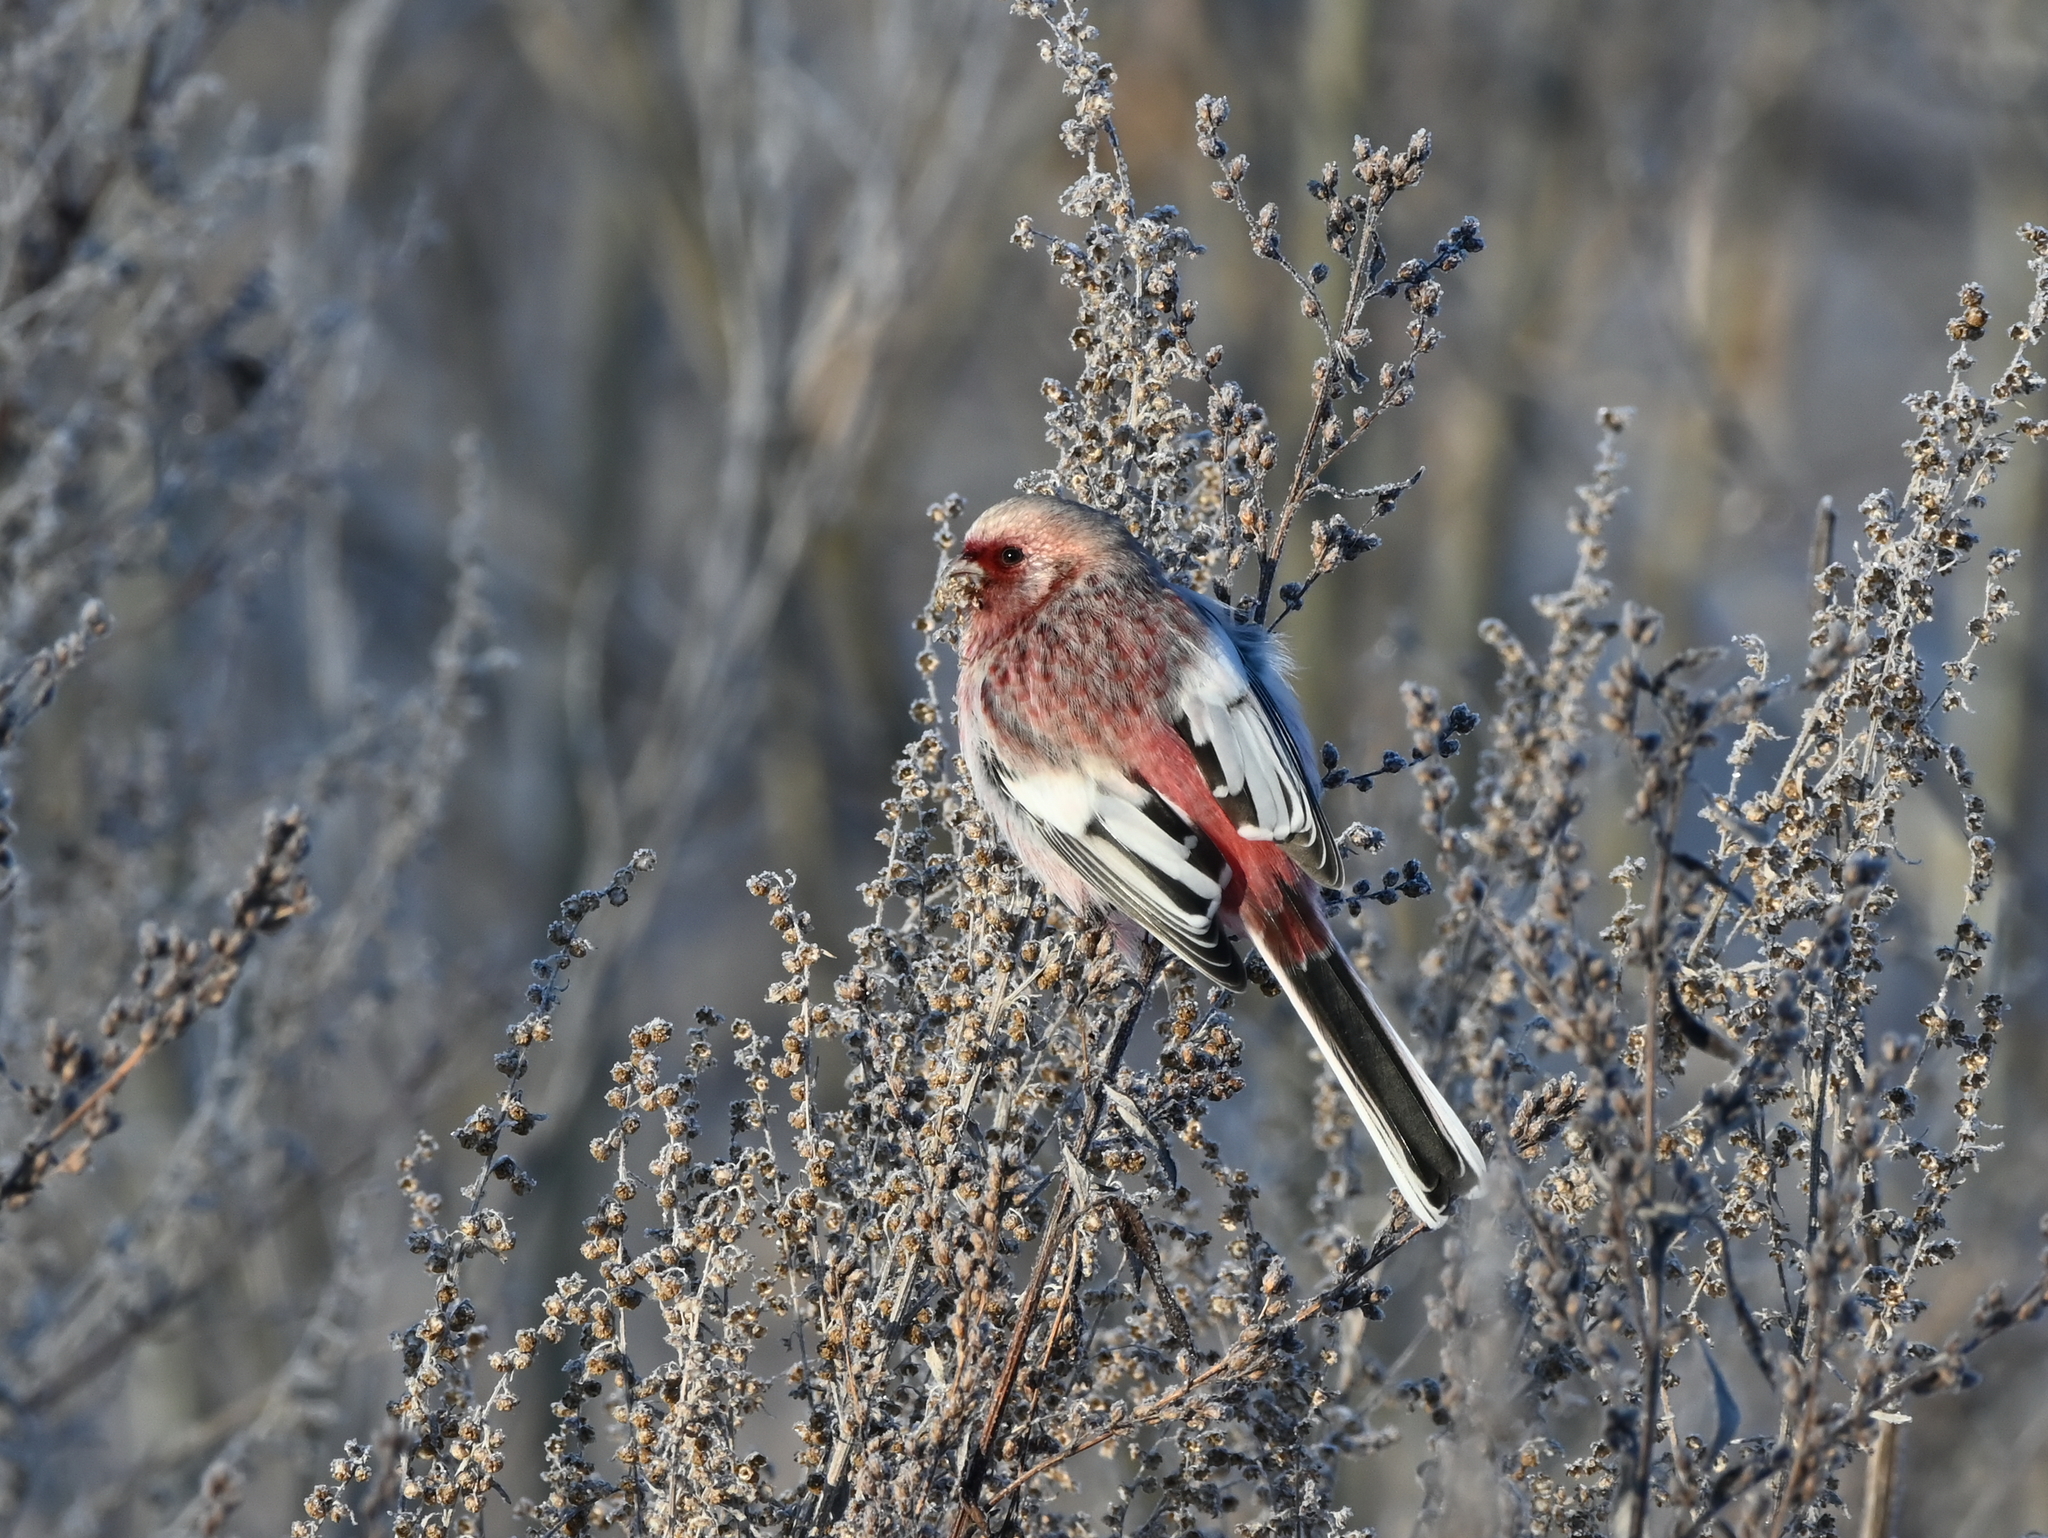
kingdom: Animalia
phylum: Chordata
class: Aves
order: Passeriformes
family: Fringillidae
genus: Carpodacus
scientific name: Carpodacus sibiricus
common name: Long-tailed rosefinch
